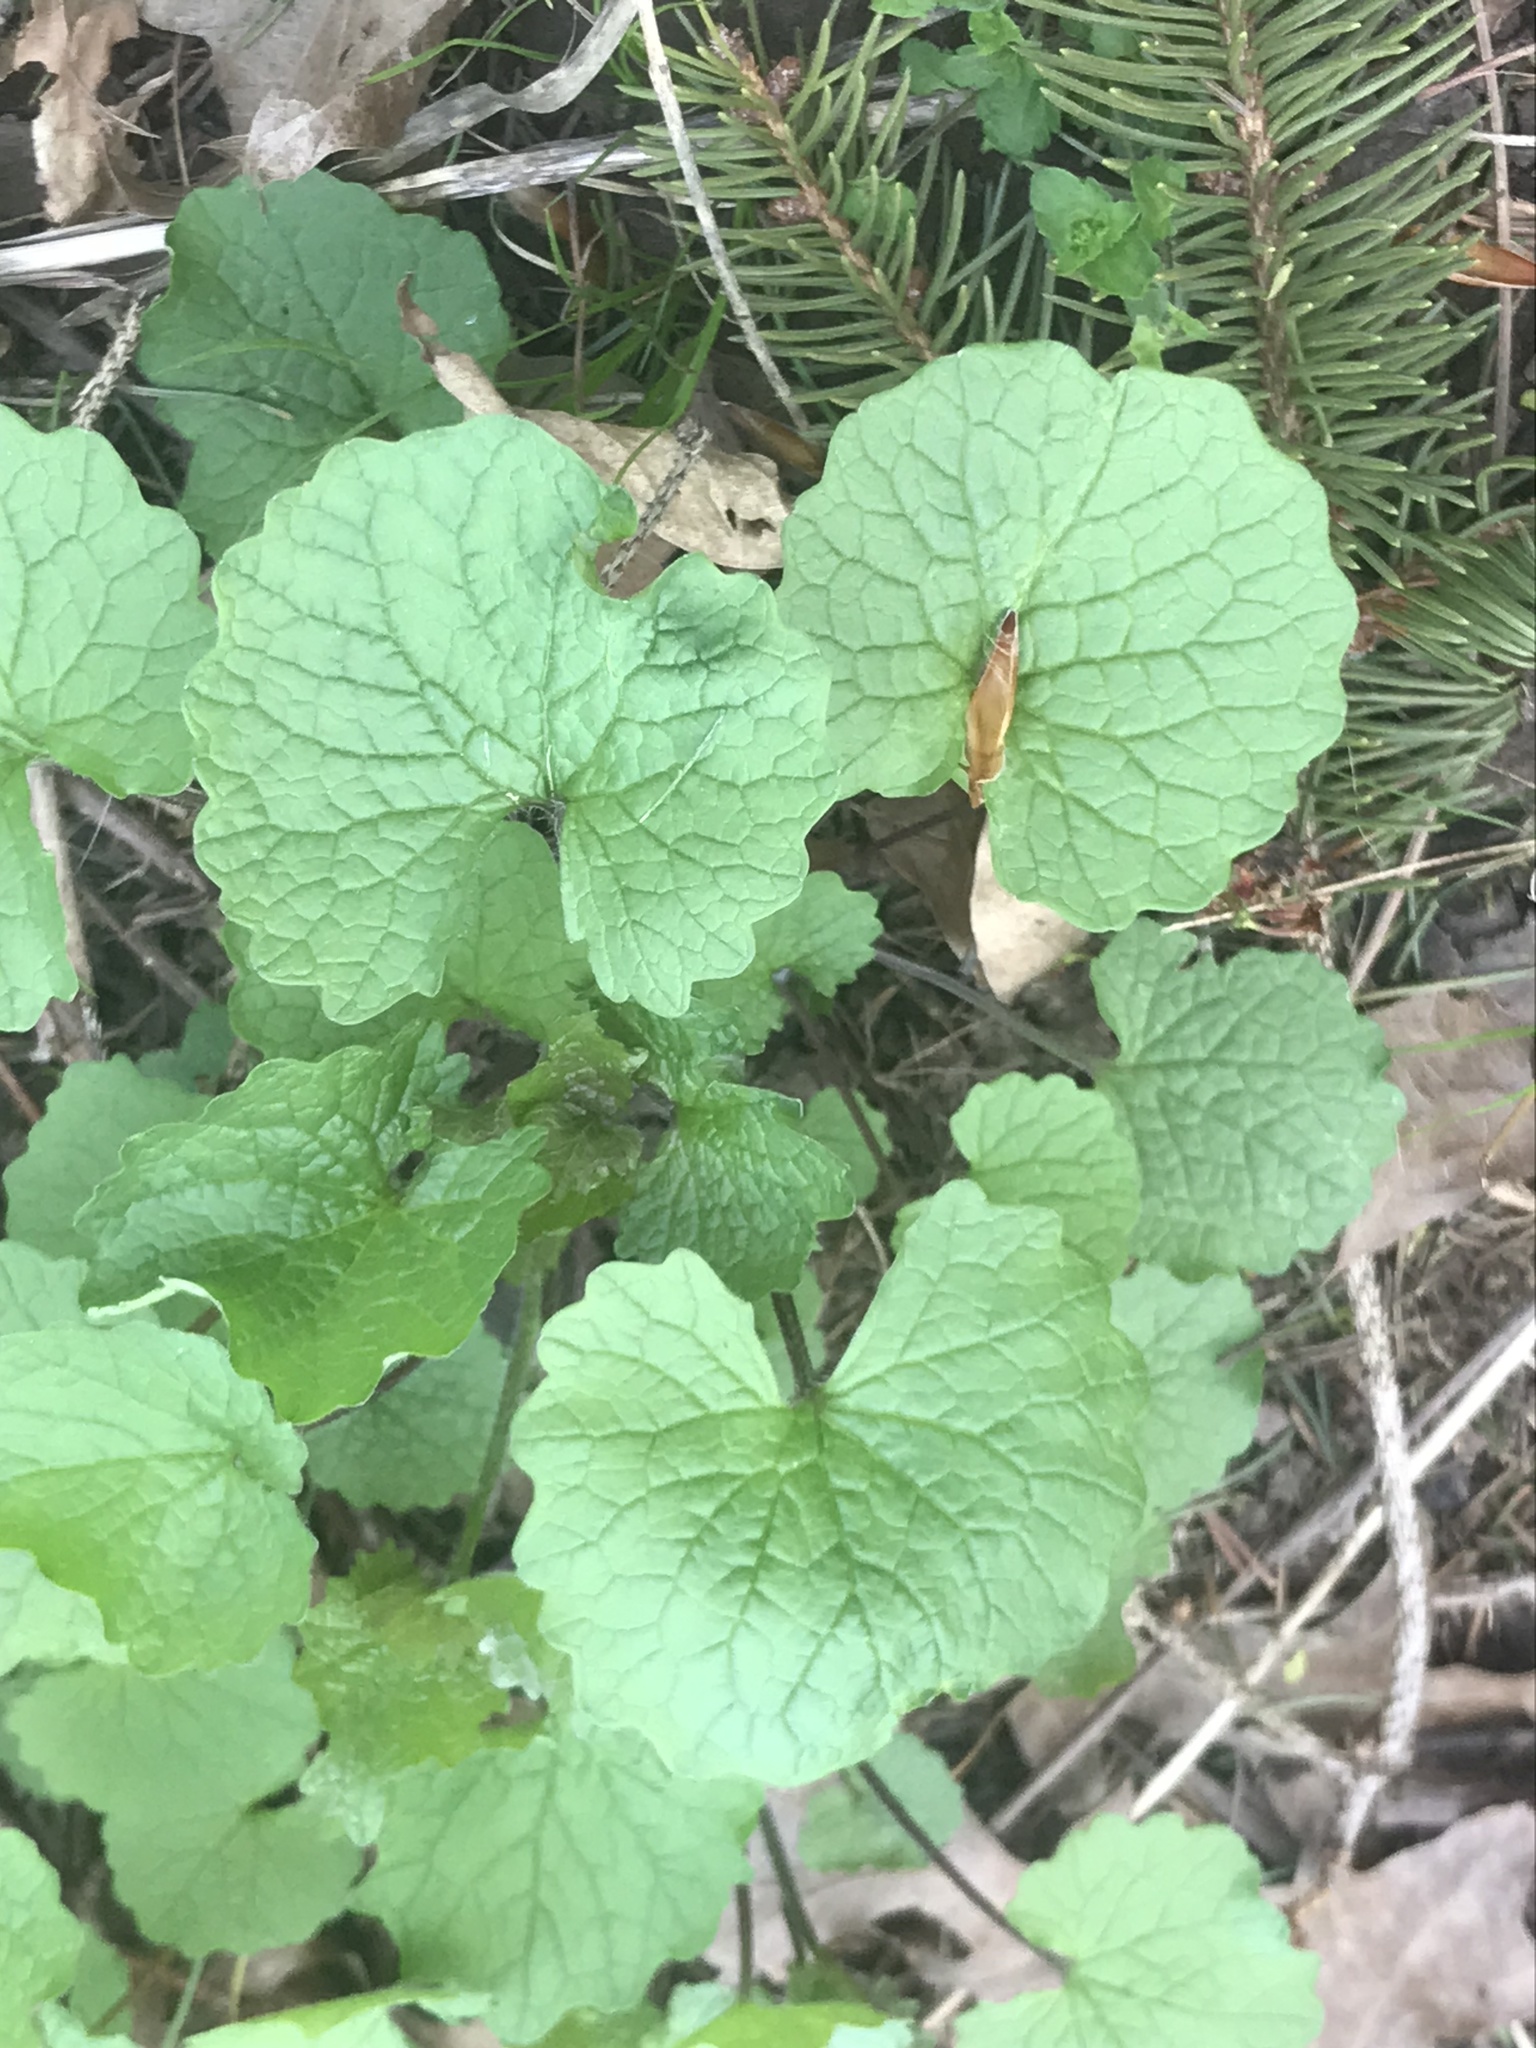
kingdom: Plantae
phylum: Tracheophyta
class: Magnoliopsida
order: Brassicales
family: Brassicaceae
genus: Alliaria
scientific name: Alliaria petiolata
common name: Garlic mustard
